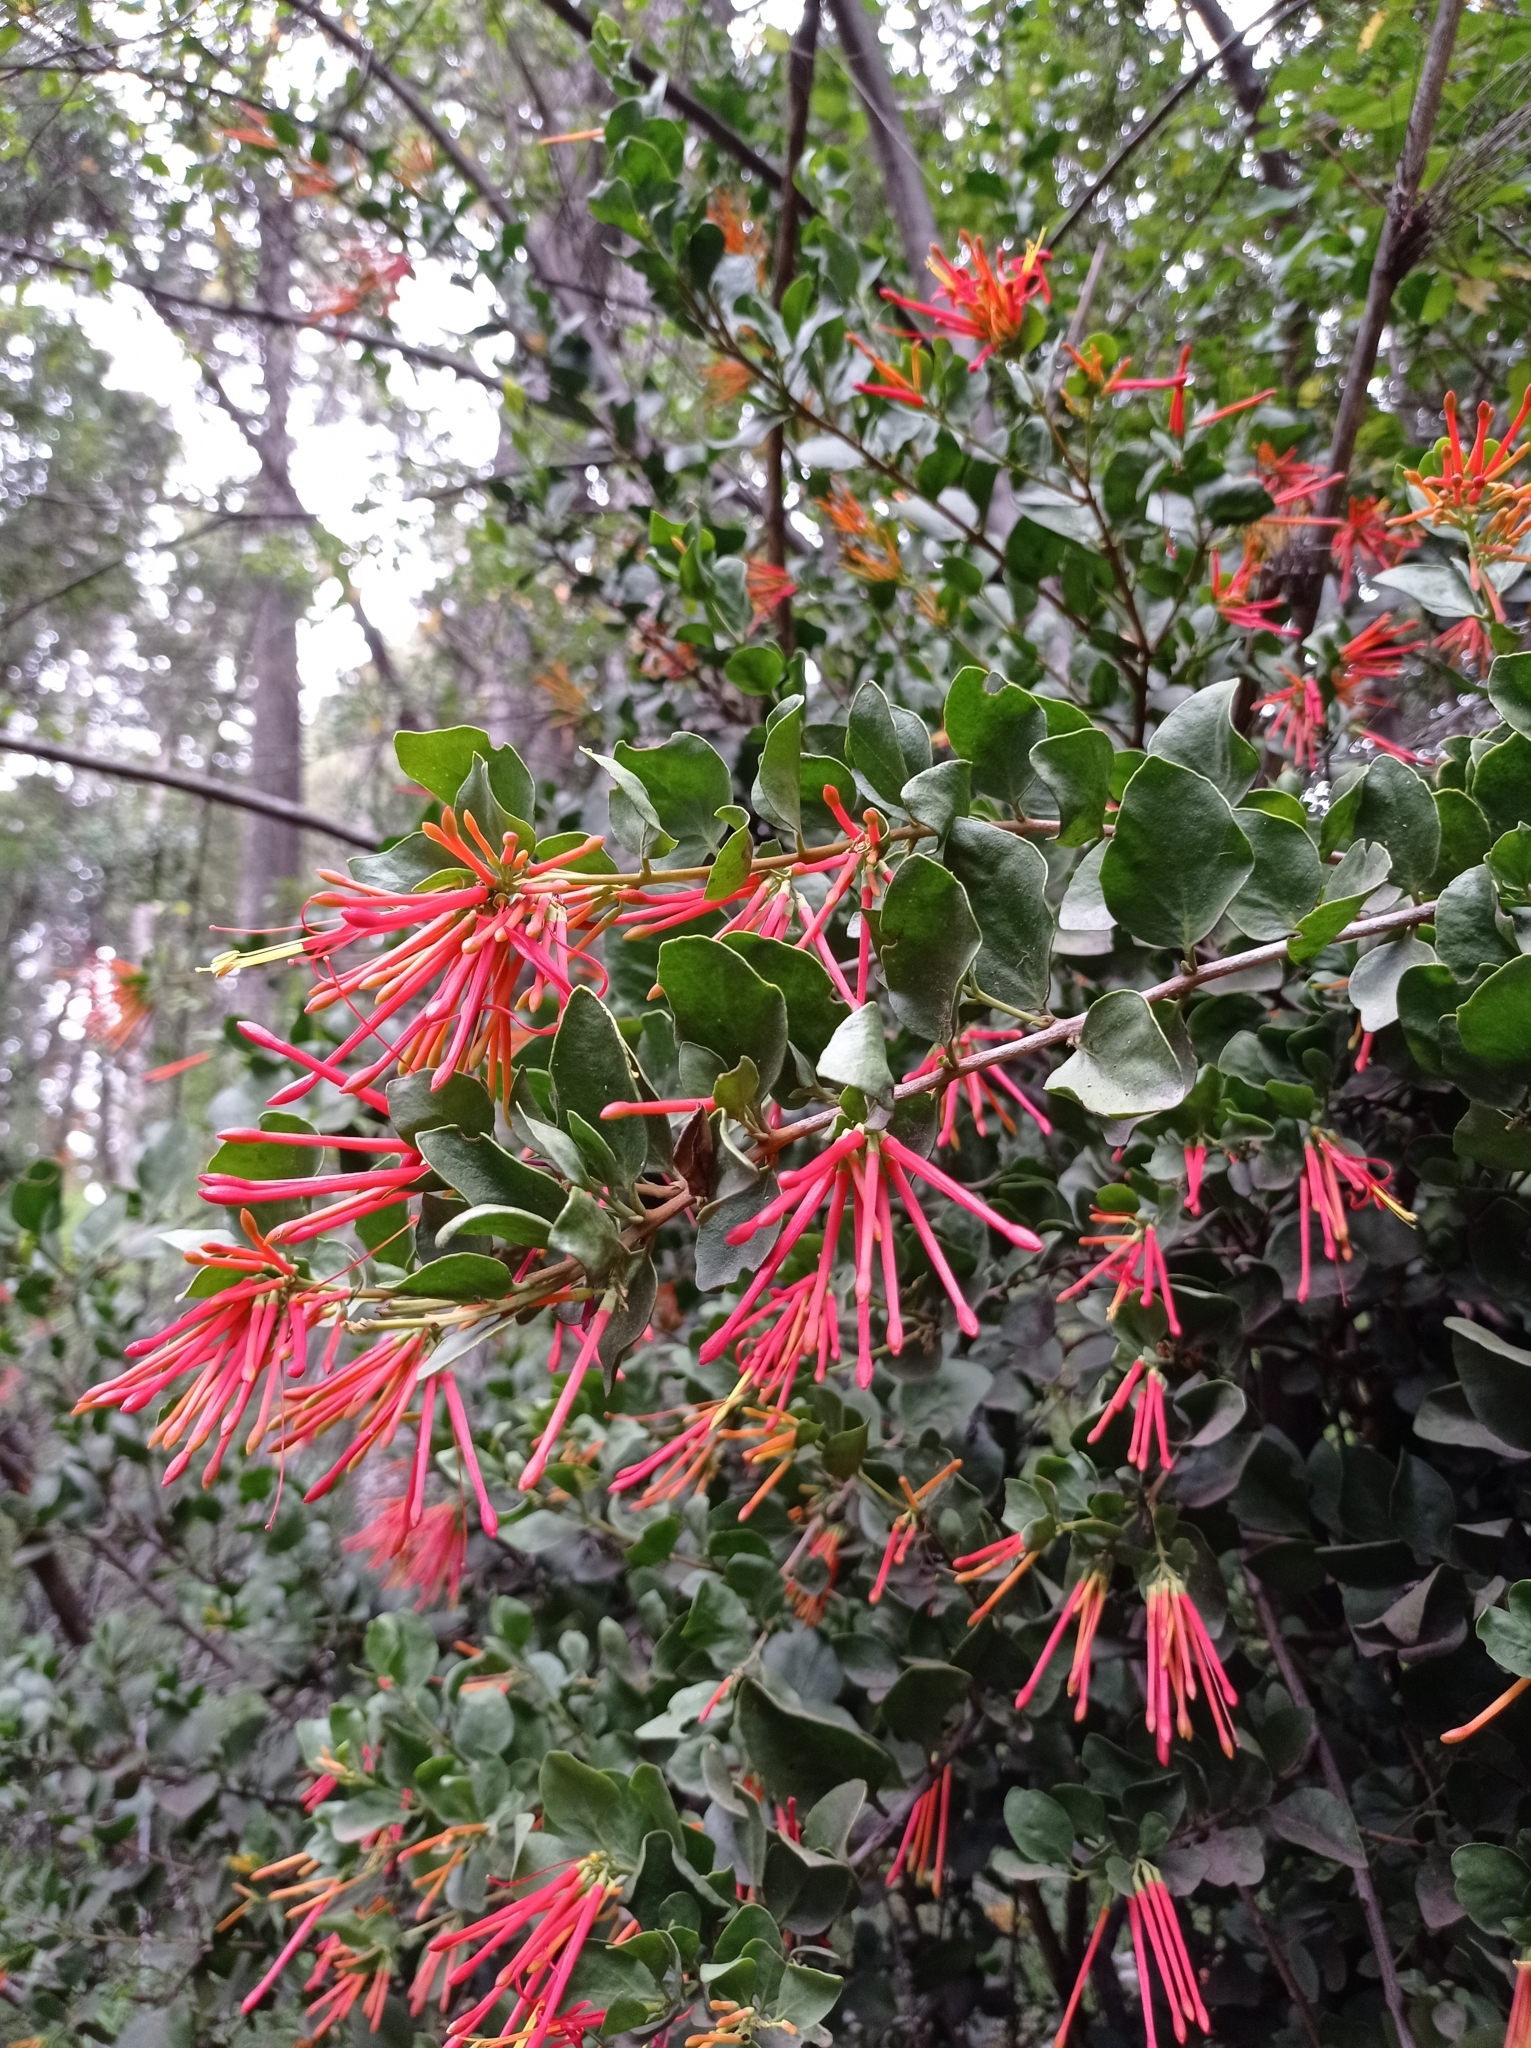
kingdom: Plantae
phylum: Tracheophyta
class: Magnoliopsida
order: Santalales
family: Loranthaceae
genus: Tristerix
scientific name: Tristerix corymbosus
